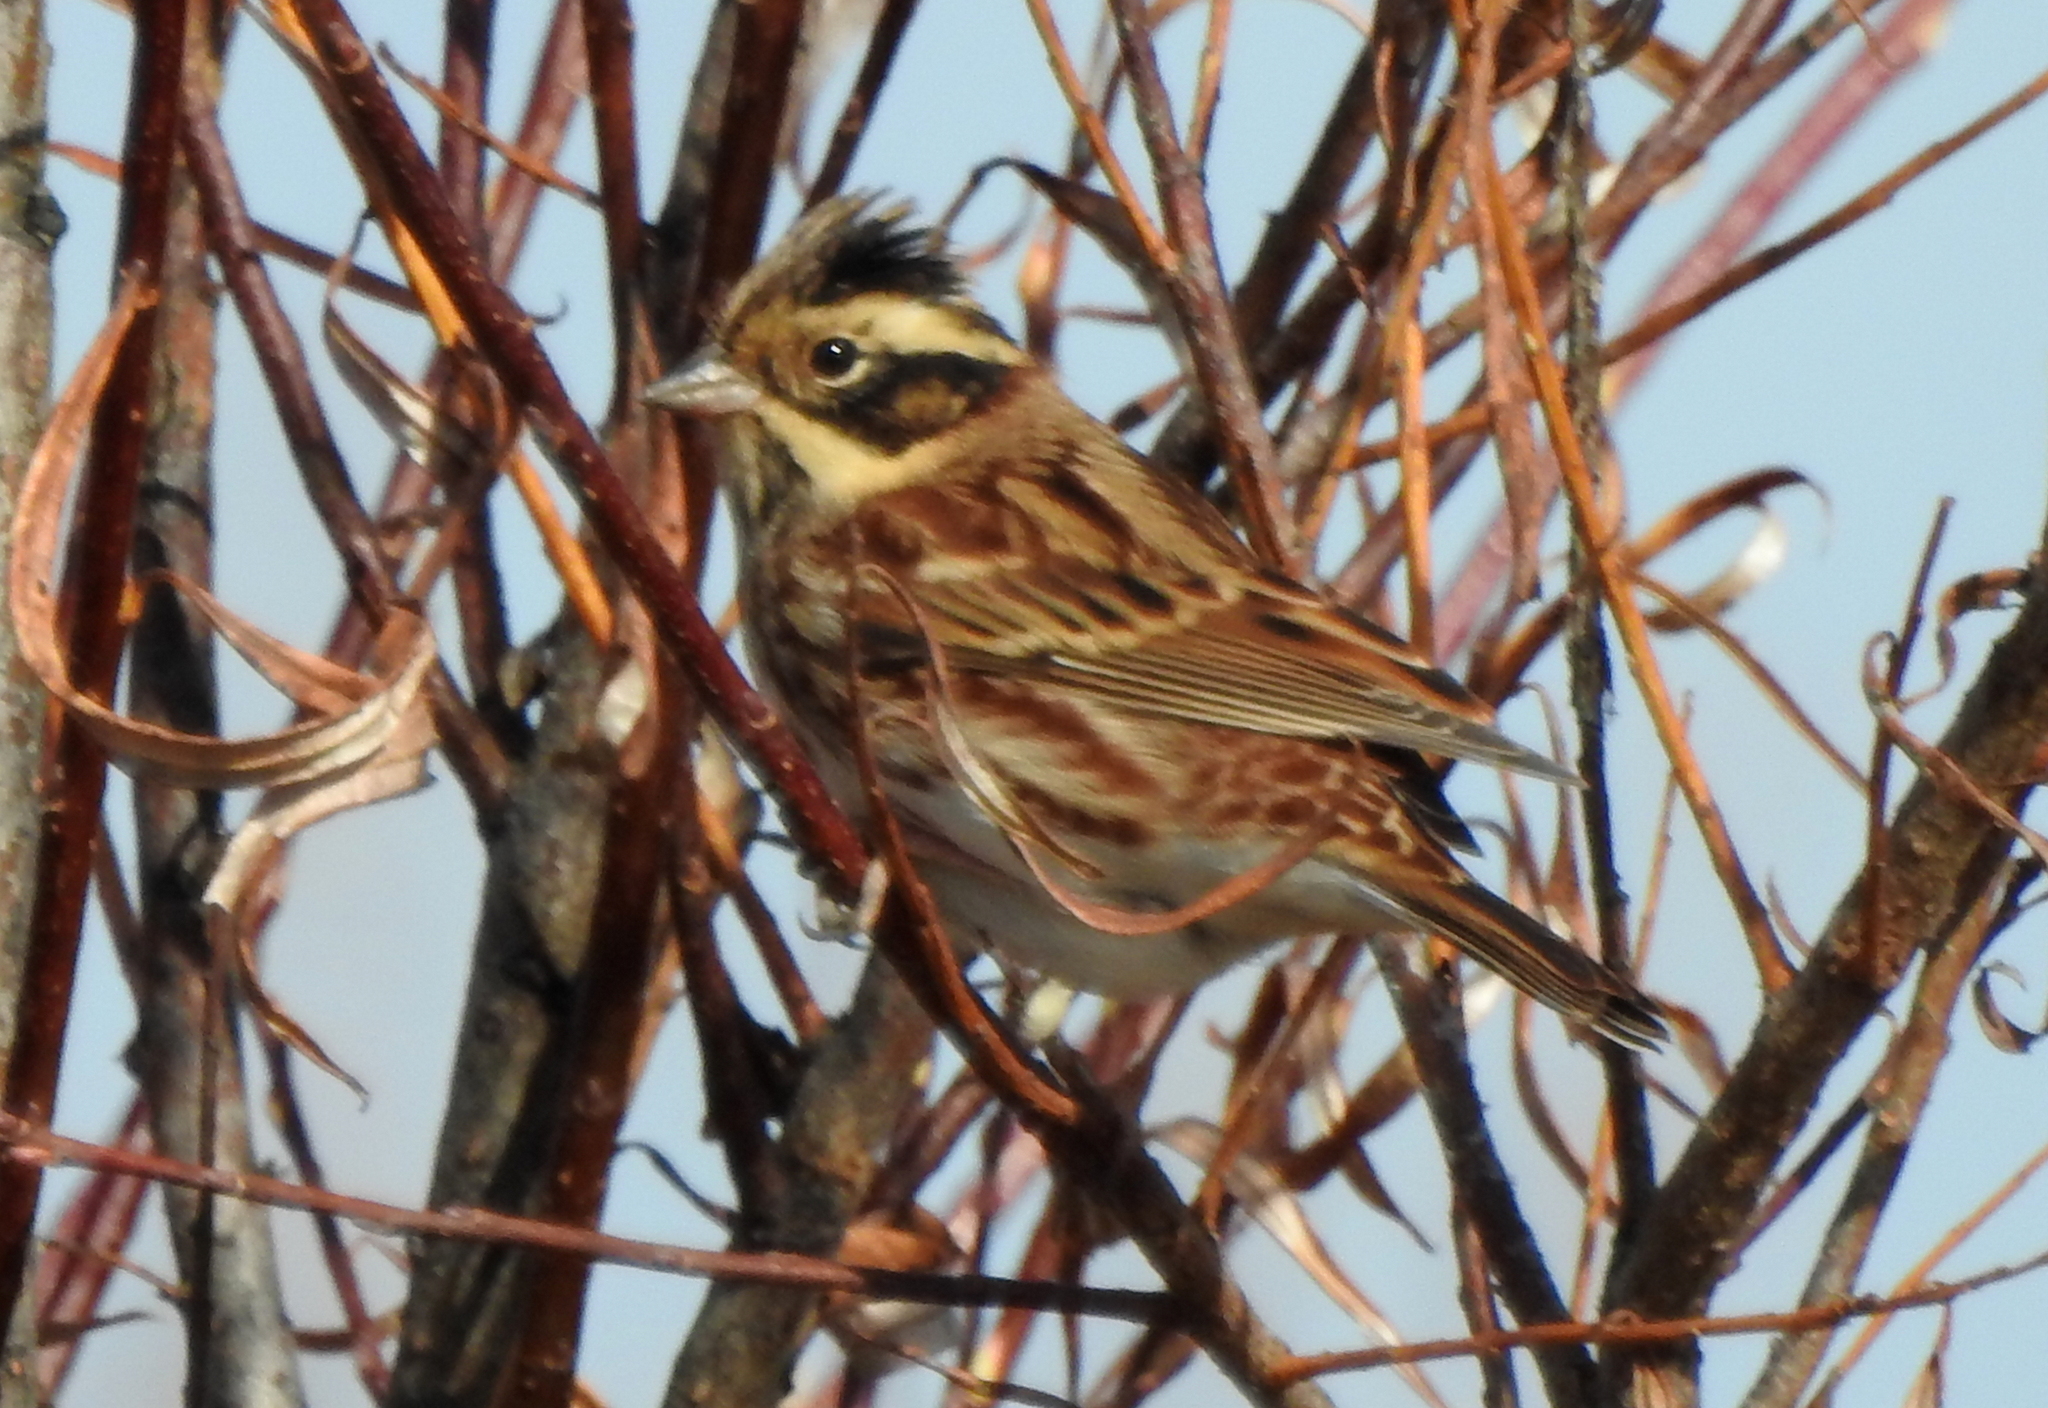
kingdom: Animalia
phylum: Chordata
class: Aves
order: Passeriformes
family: Emberizidae
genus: Emberiza
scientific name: Emberiza rustica
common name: Rustic bunting
